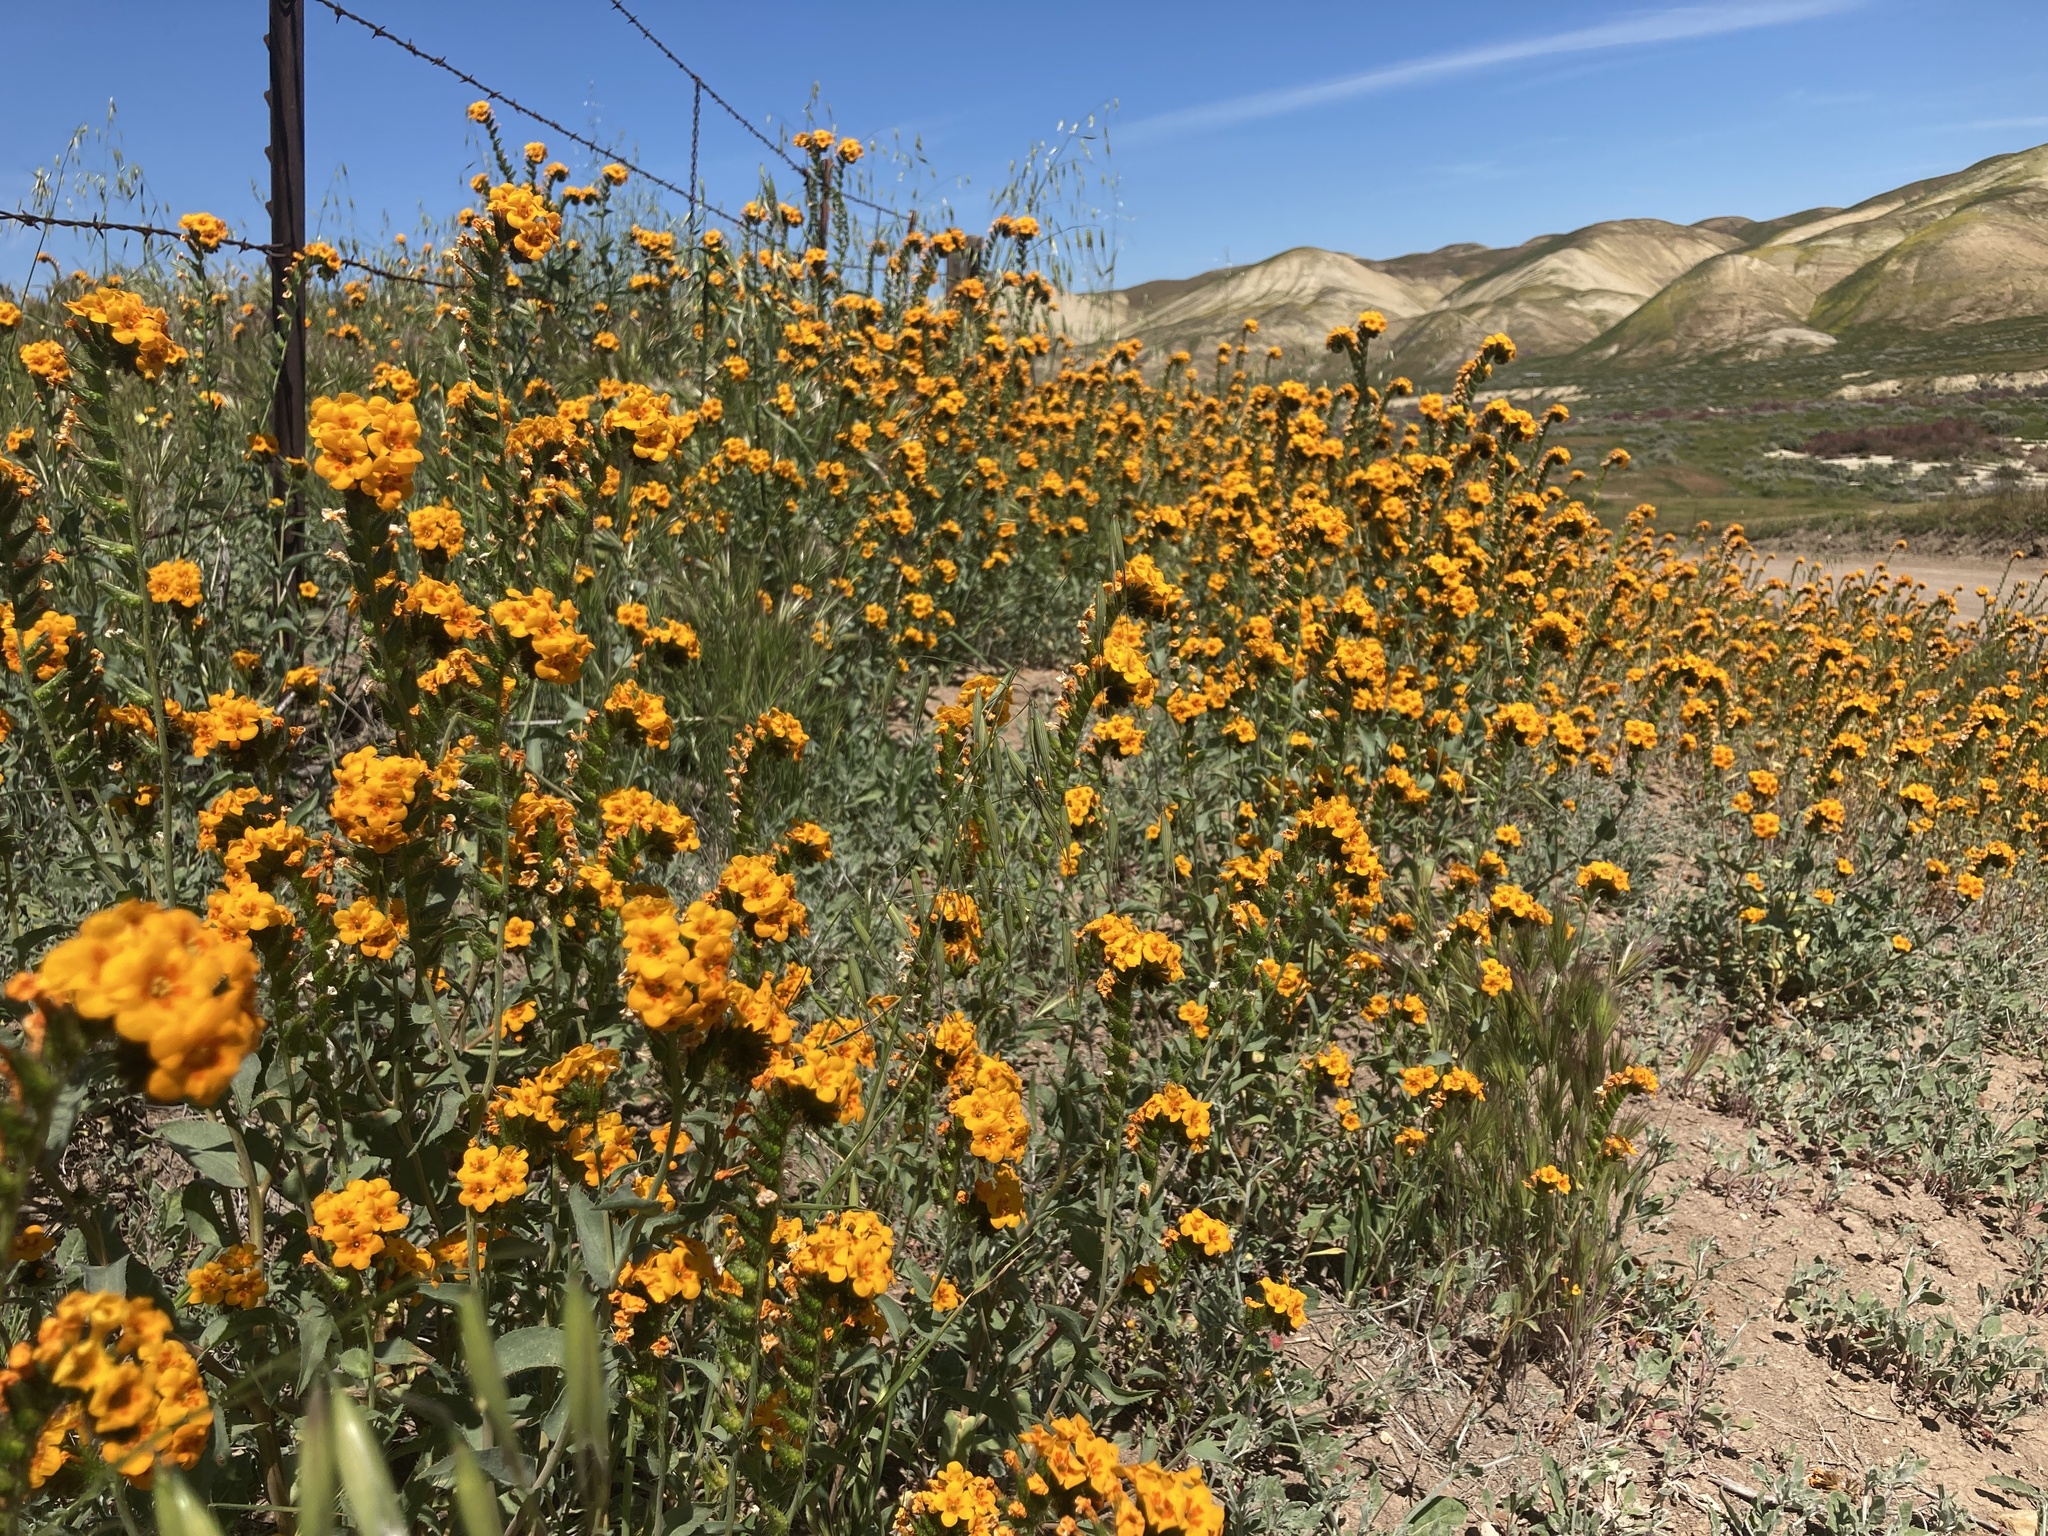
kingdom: Plantae
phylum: Tracheophyta
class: Magnoliopsida
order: Boraginales
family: Boraginaceae
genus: Amsinckia
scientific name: Amsinckia vernicosa
